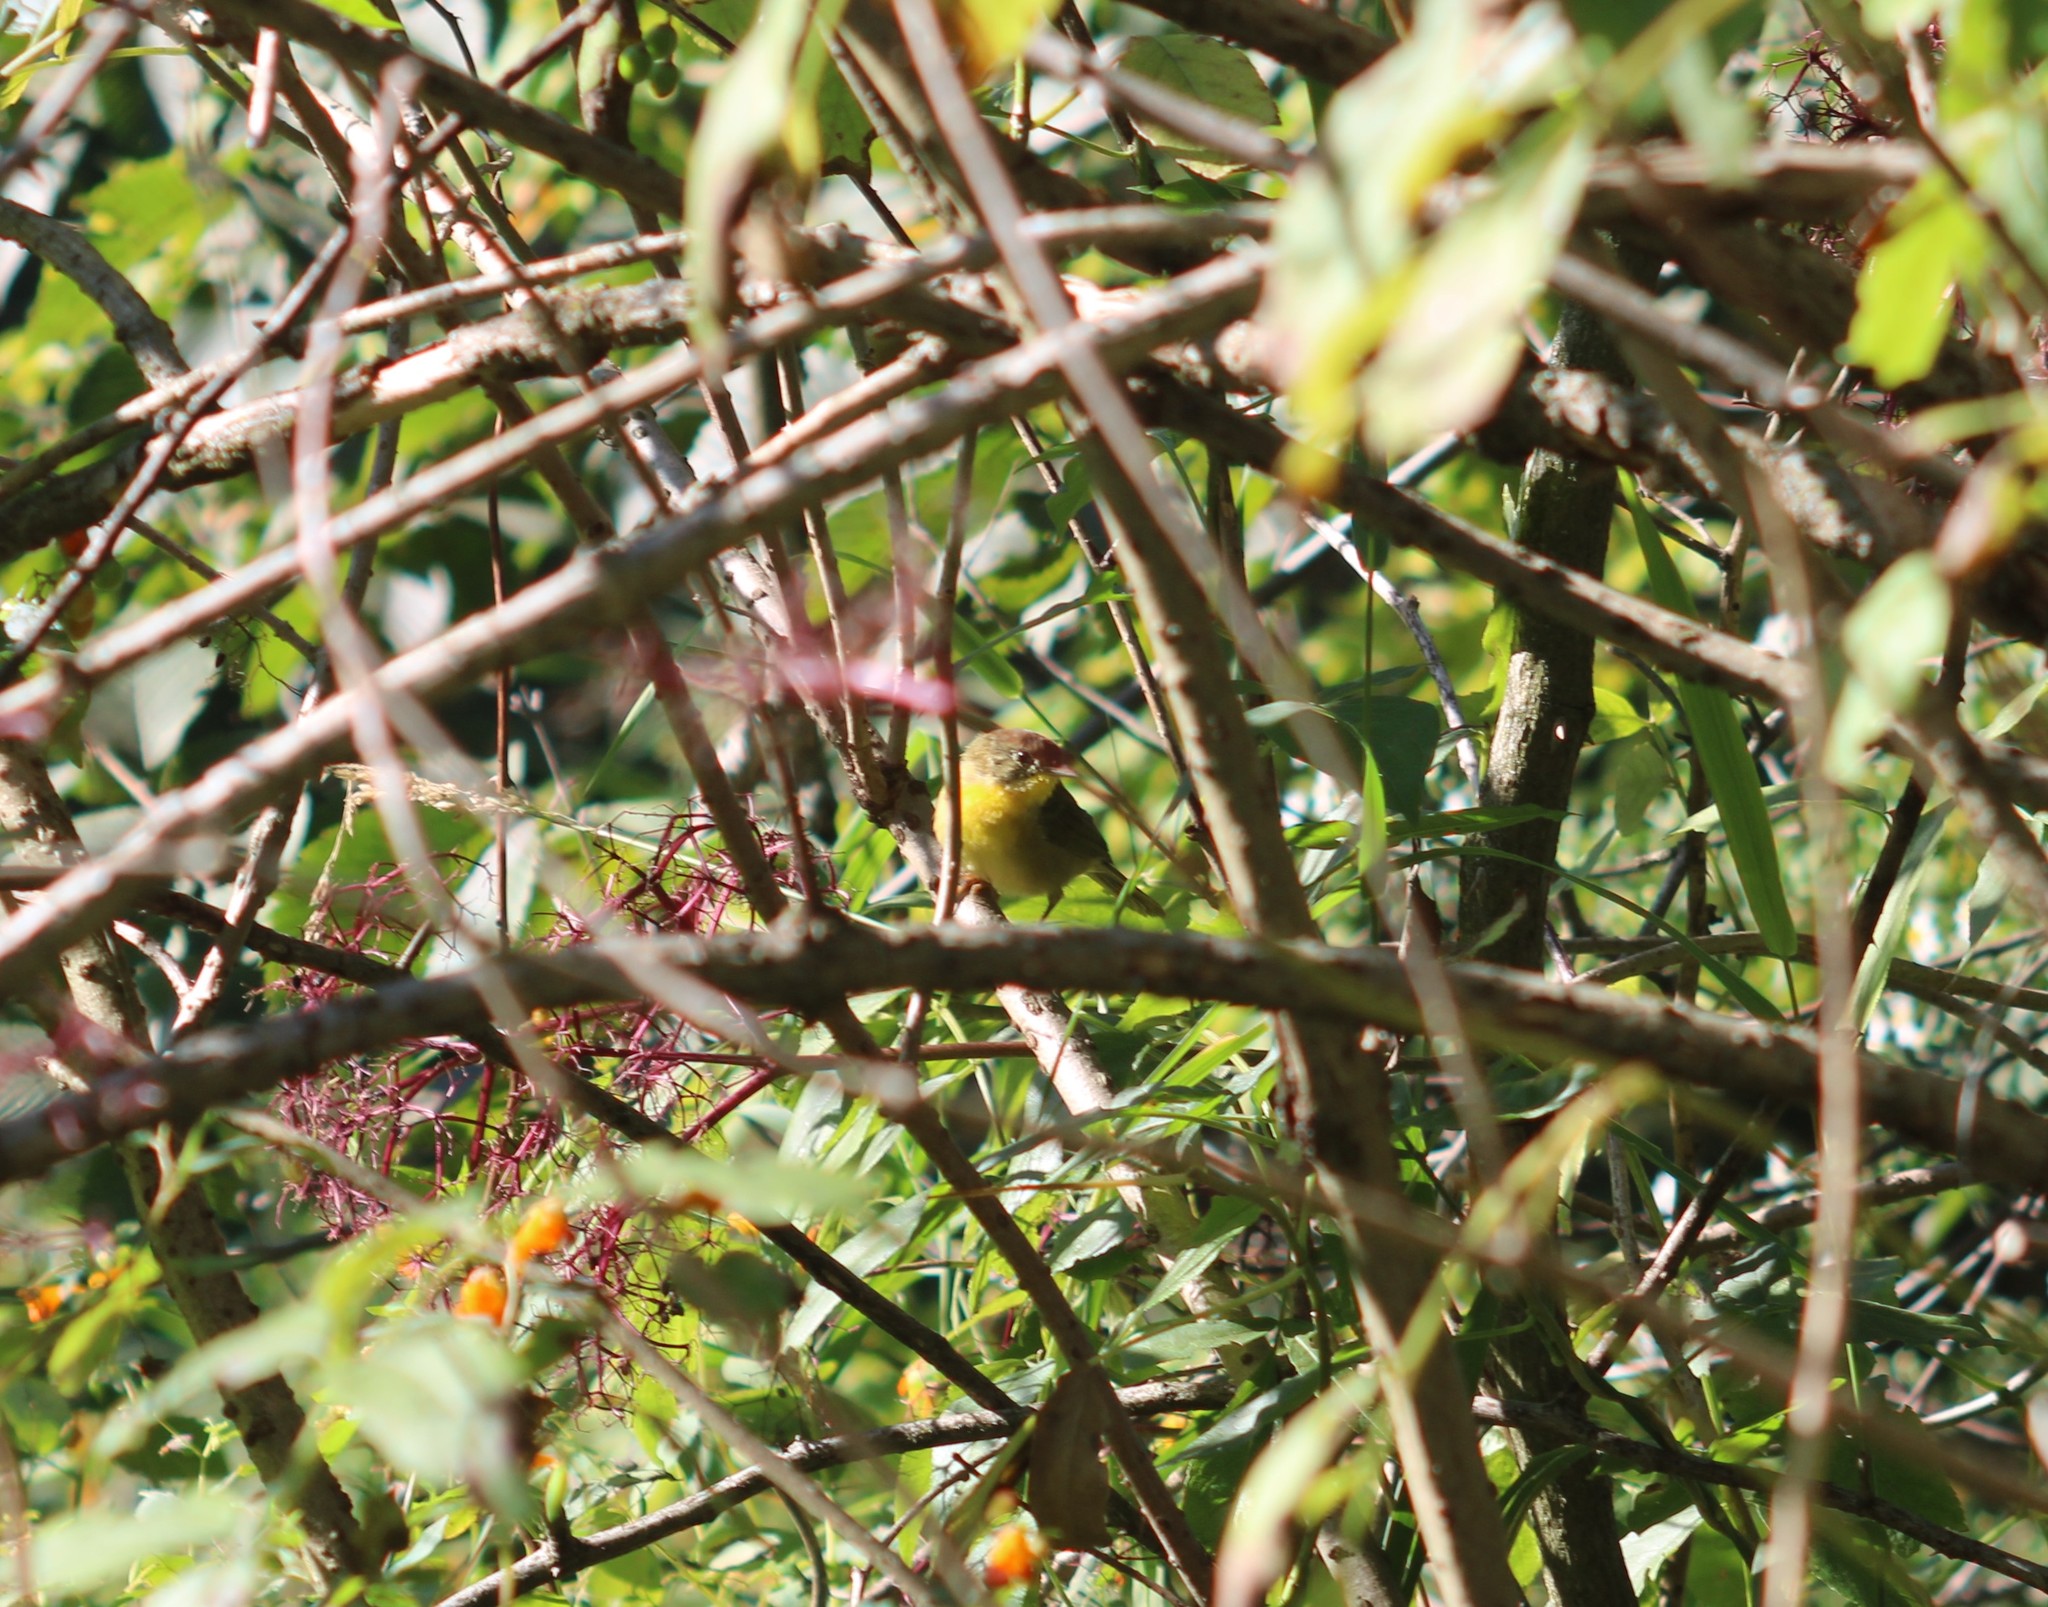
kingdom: Animalia
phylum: Chordata
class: Aves
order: Passeriformes
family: Parulidae
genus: Geothlypis
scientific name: Geothlypis trichas
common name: Common yellowthroat
